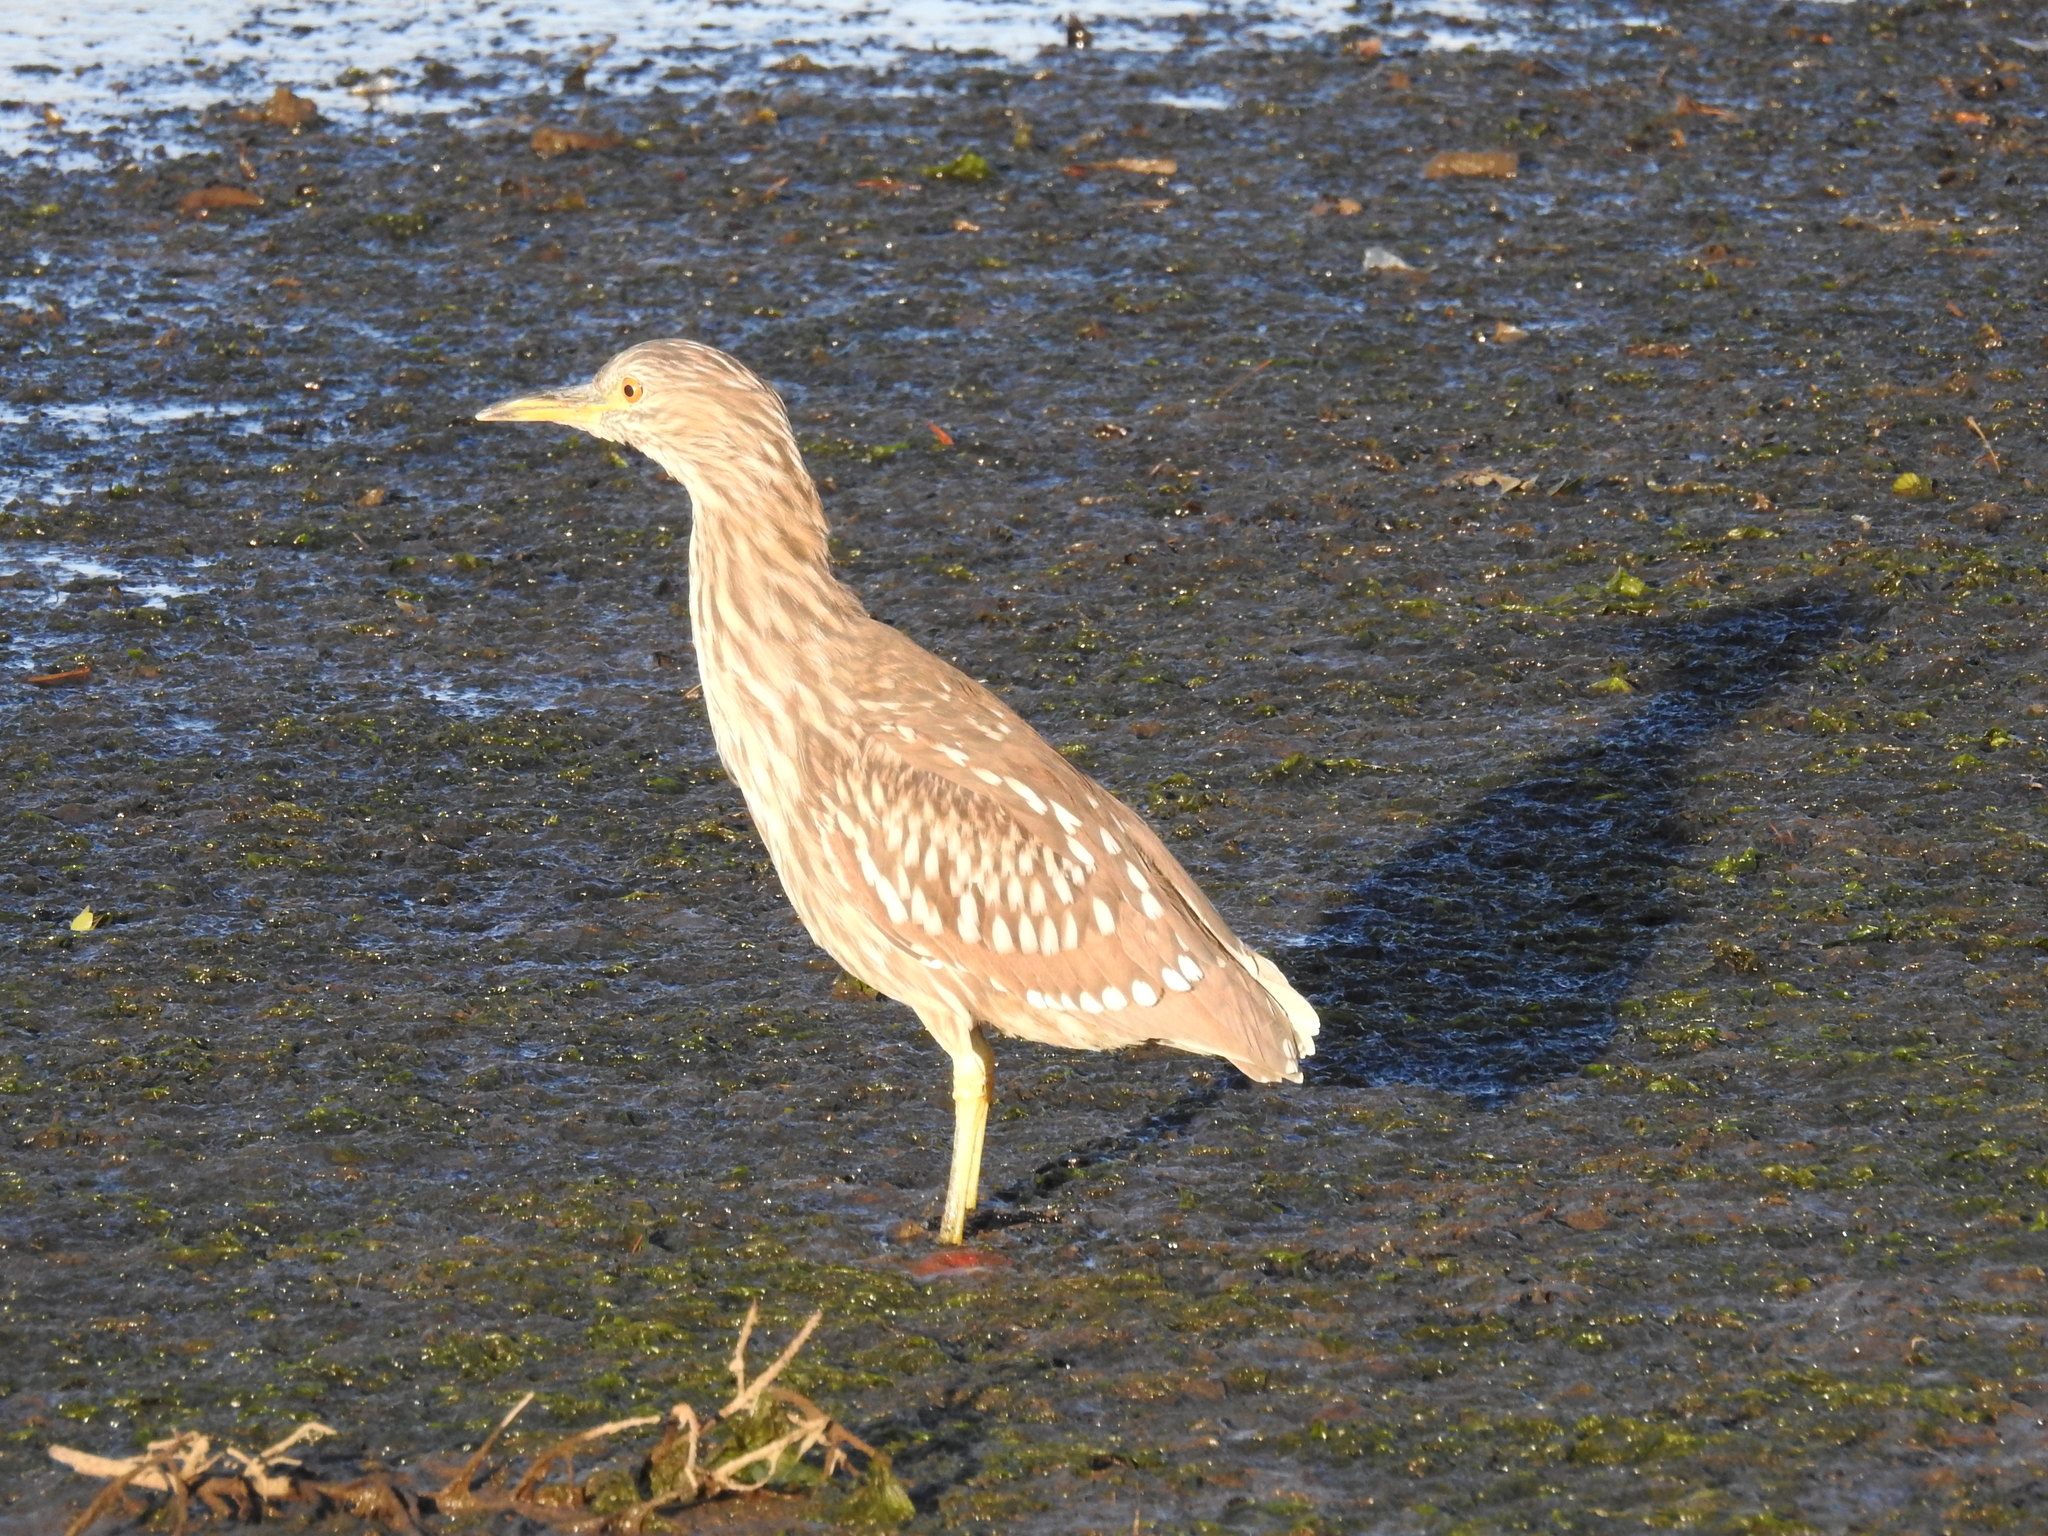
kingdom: Animalia
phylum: Chordata
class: Aves
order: Pelecaniformes
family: Ardeidae
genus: Nycticorax
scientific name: Nycticorax nycticorax
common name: Black-crowned night heron
